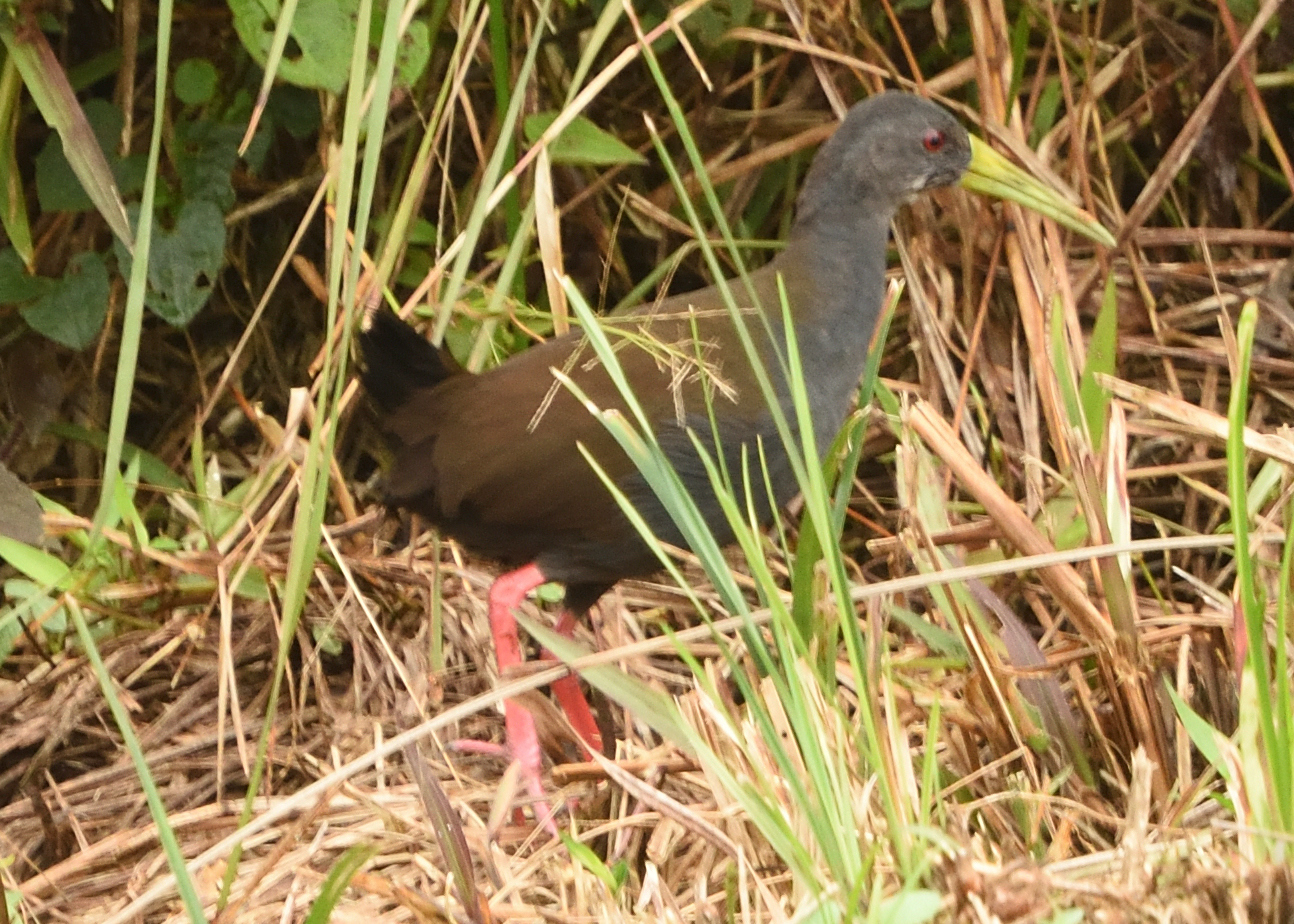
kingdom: Animalia
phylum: Chordata
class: Aves
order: Gruiformes
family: Rallidae
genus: Pardirallus
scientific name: Pardirallus nigricans
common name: Blackish rail
